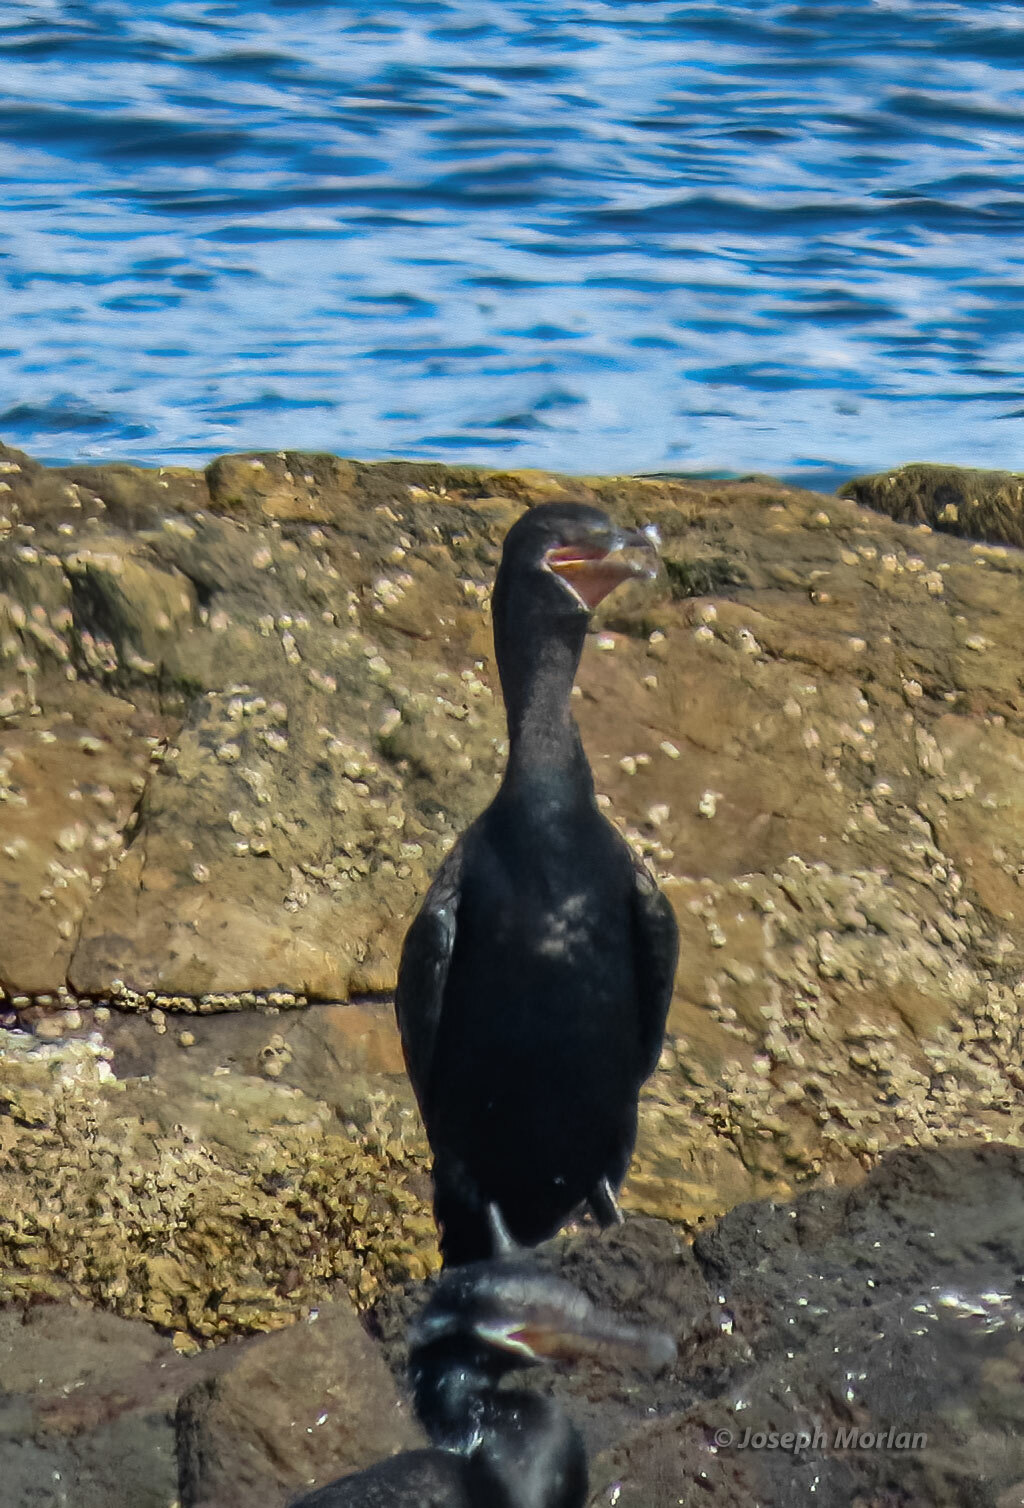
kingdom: Animalia
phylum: Chordata
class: Aves
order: Suliformes
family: Phalacrocoracidae
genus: Phalacrocorax
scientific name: Phalacrocorax brasilianus
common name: Neotropic cormorant
